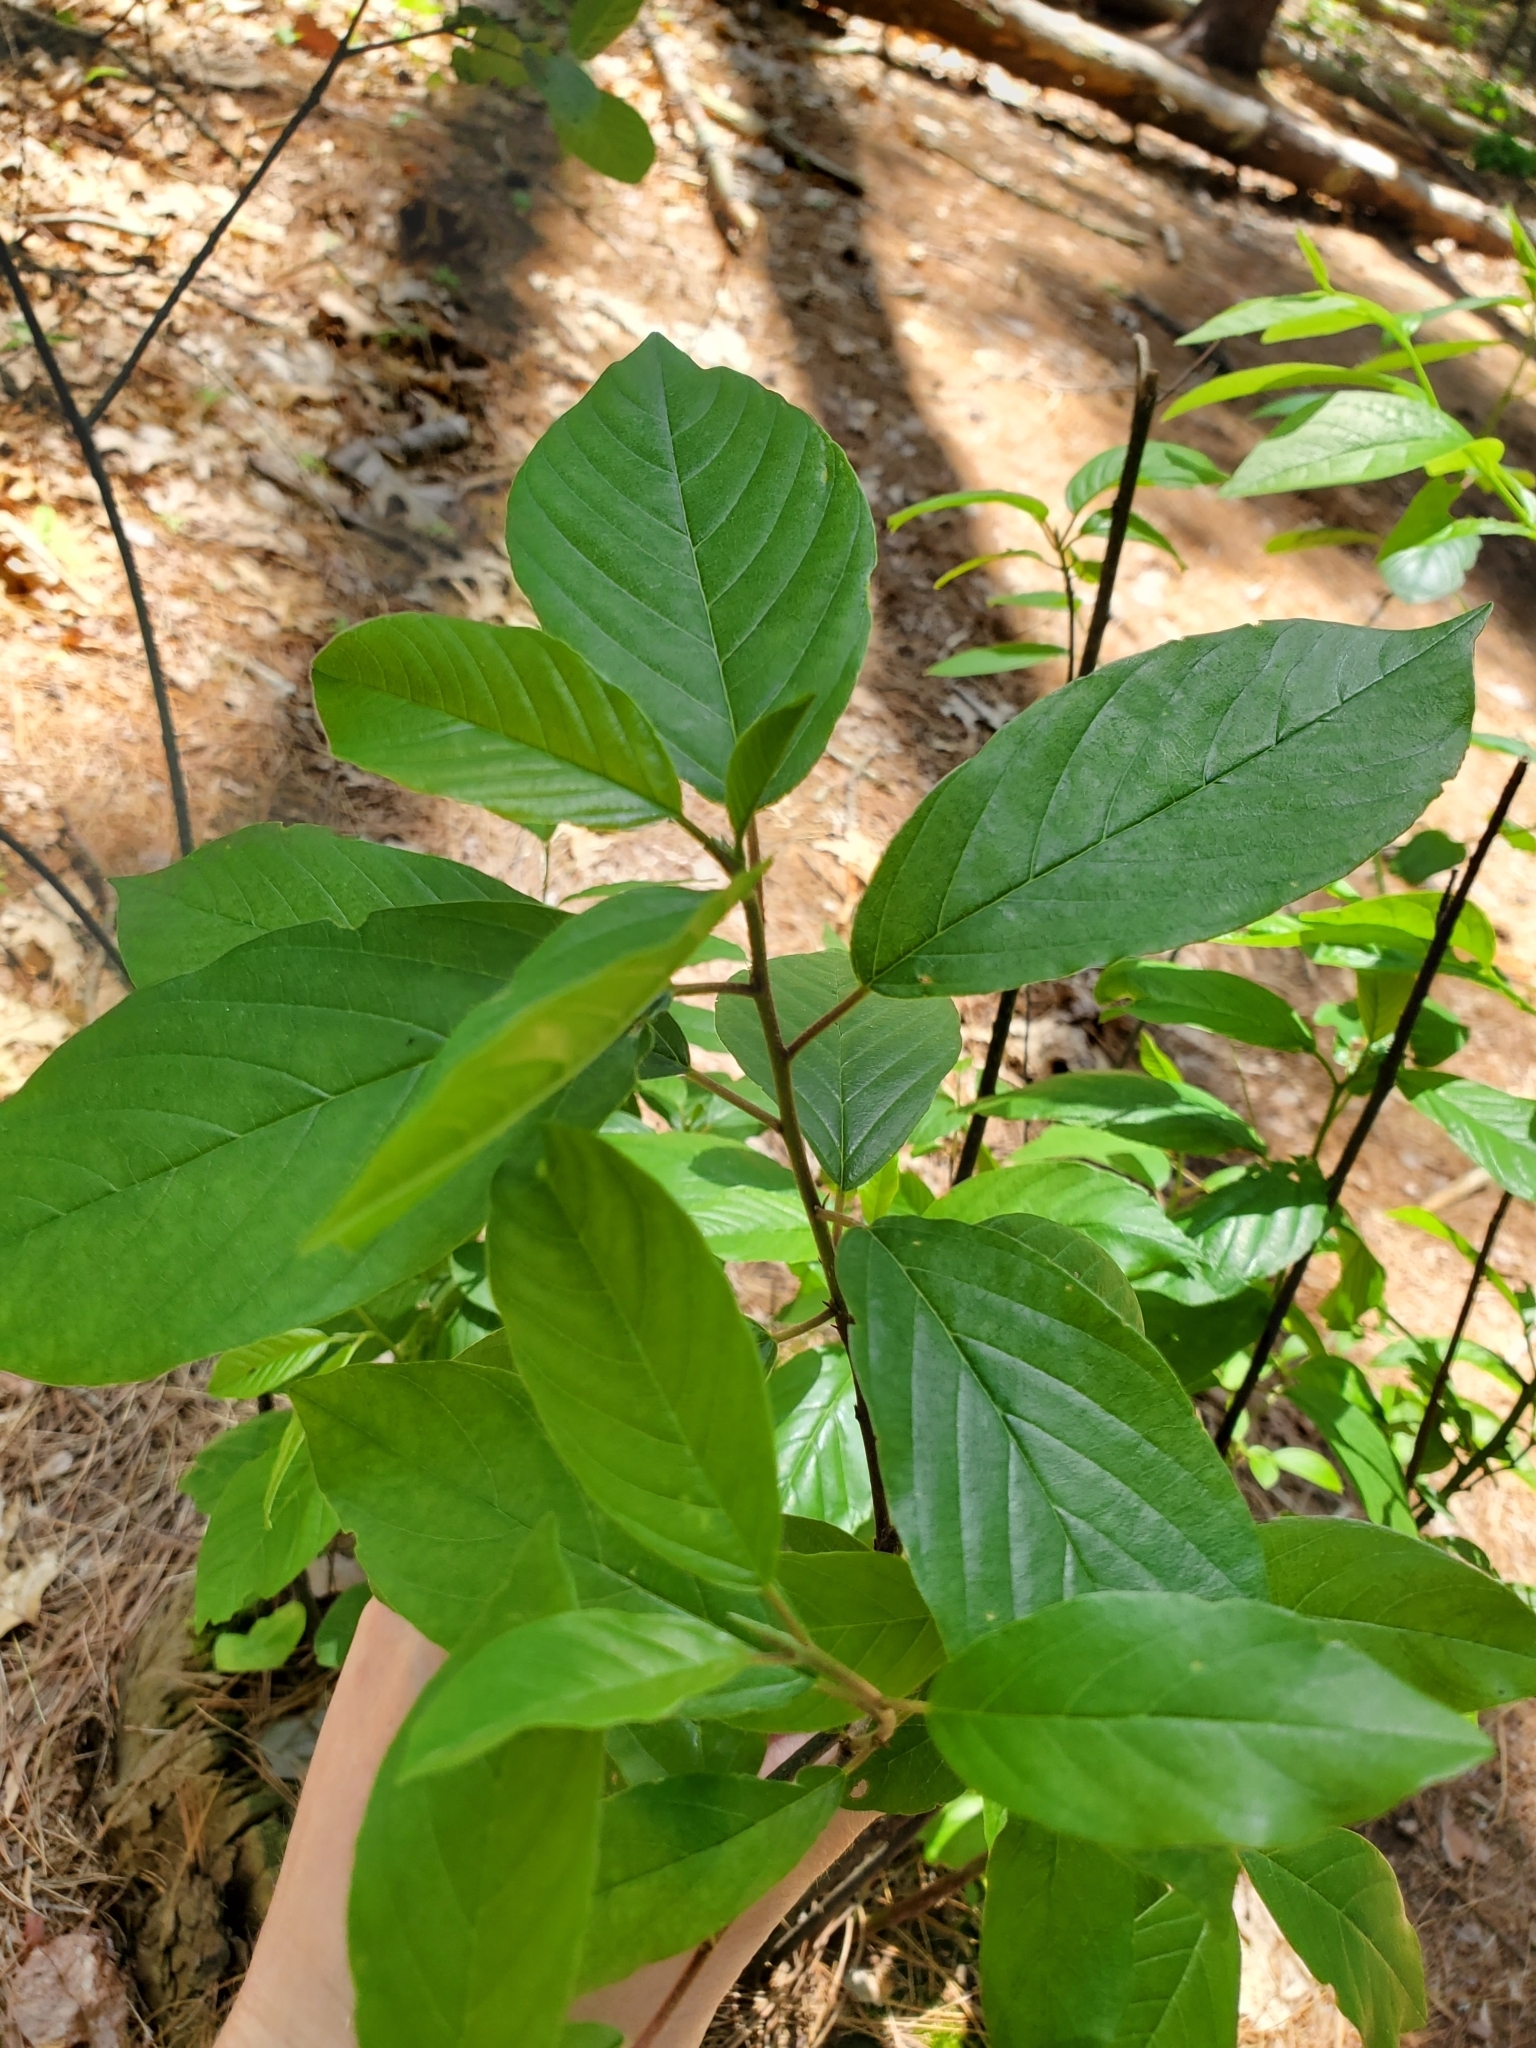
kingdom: Plantae
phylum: Tracheophyta
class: Magnoliopsida
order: Rosales
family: Rhamnaceae
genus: Frangula
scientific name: Frangula alnus
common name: Alder buckthorn
